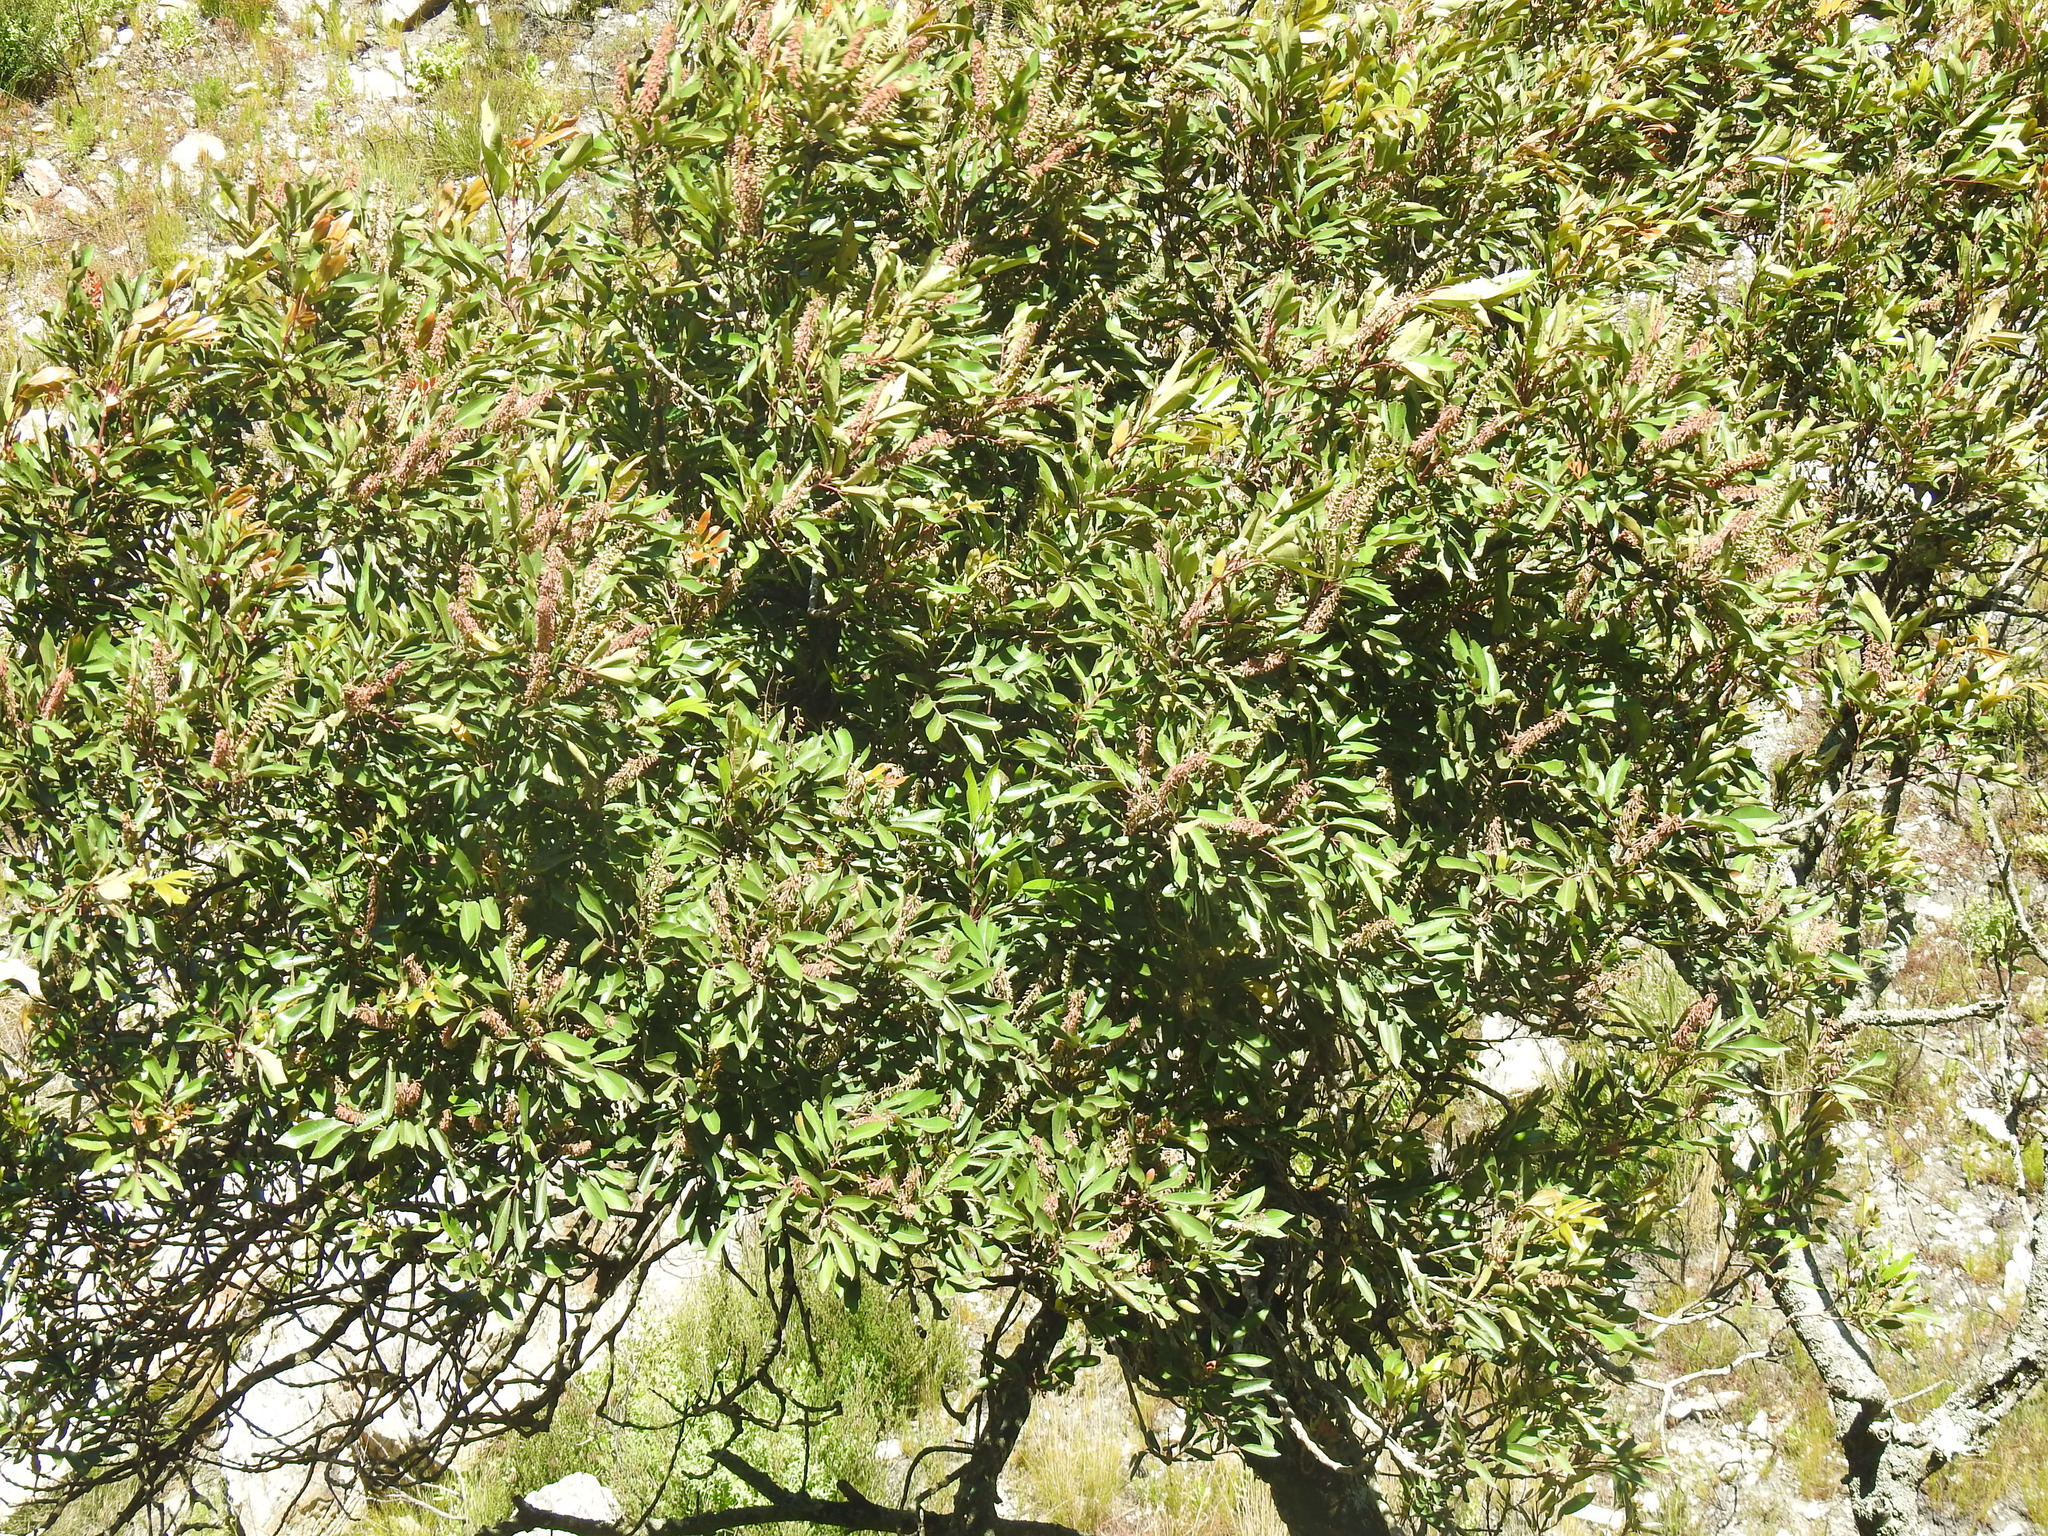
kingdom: Plantae
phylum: Tracheophyta
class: Magnoliopsida
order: Oxalidales
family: Cunoniaceae
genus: Cunonia
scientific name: Cunonia capensis
